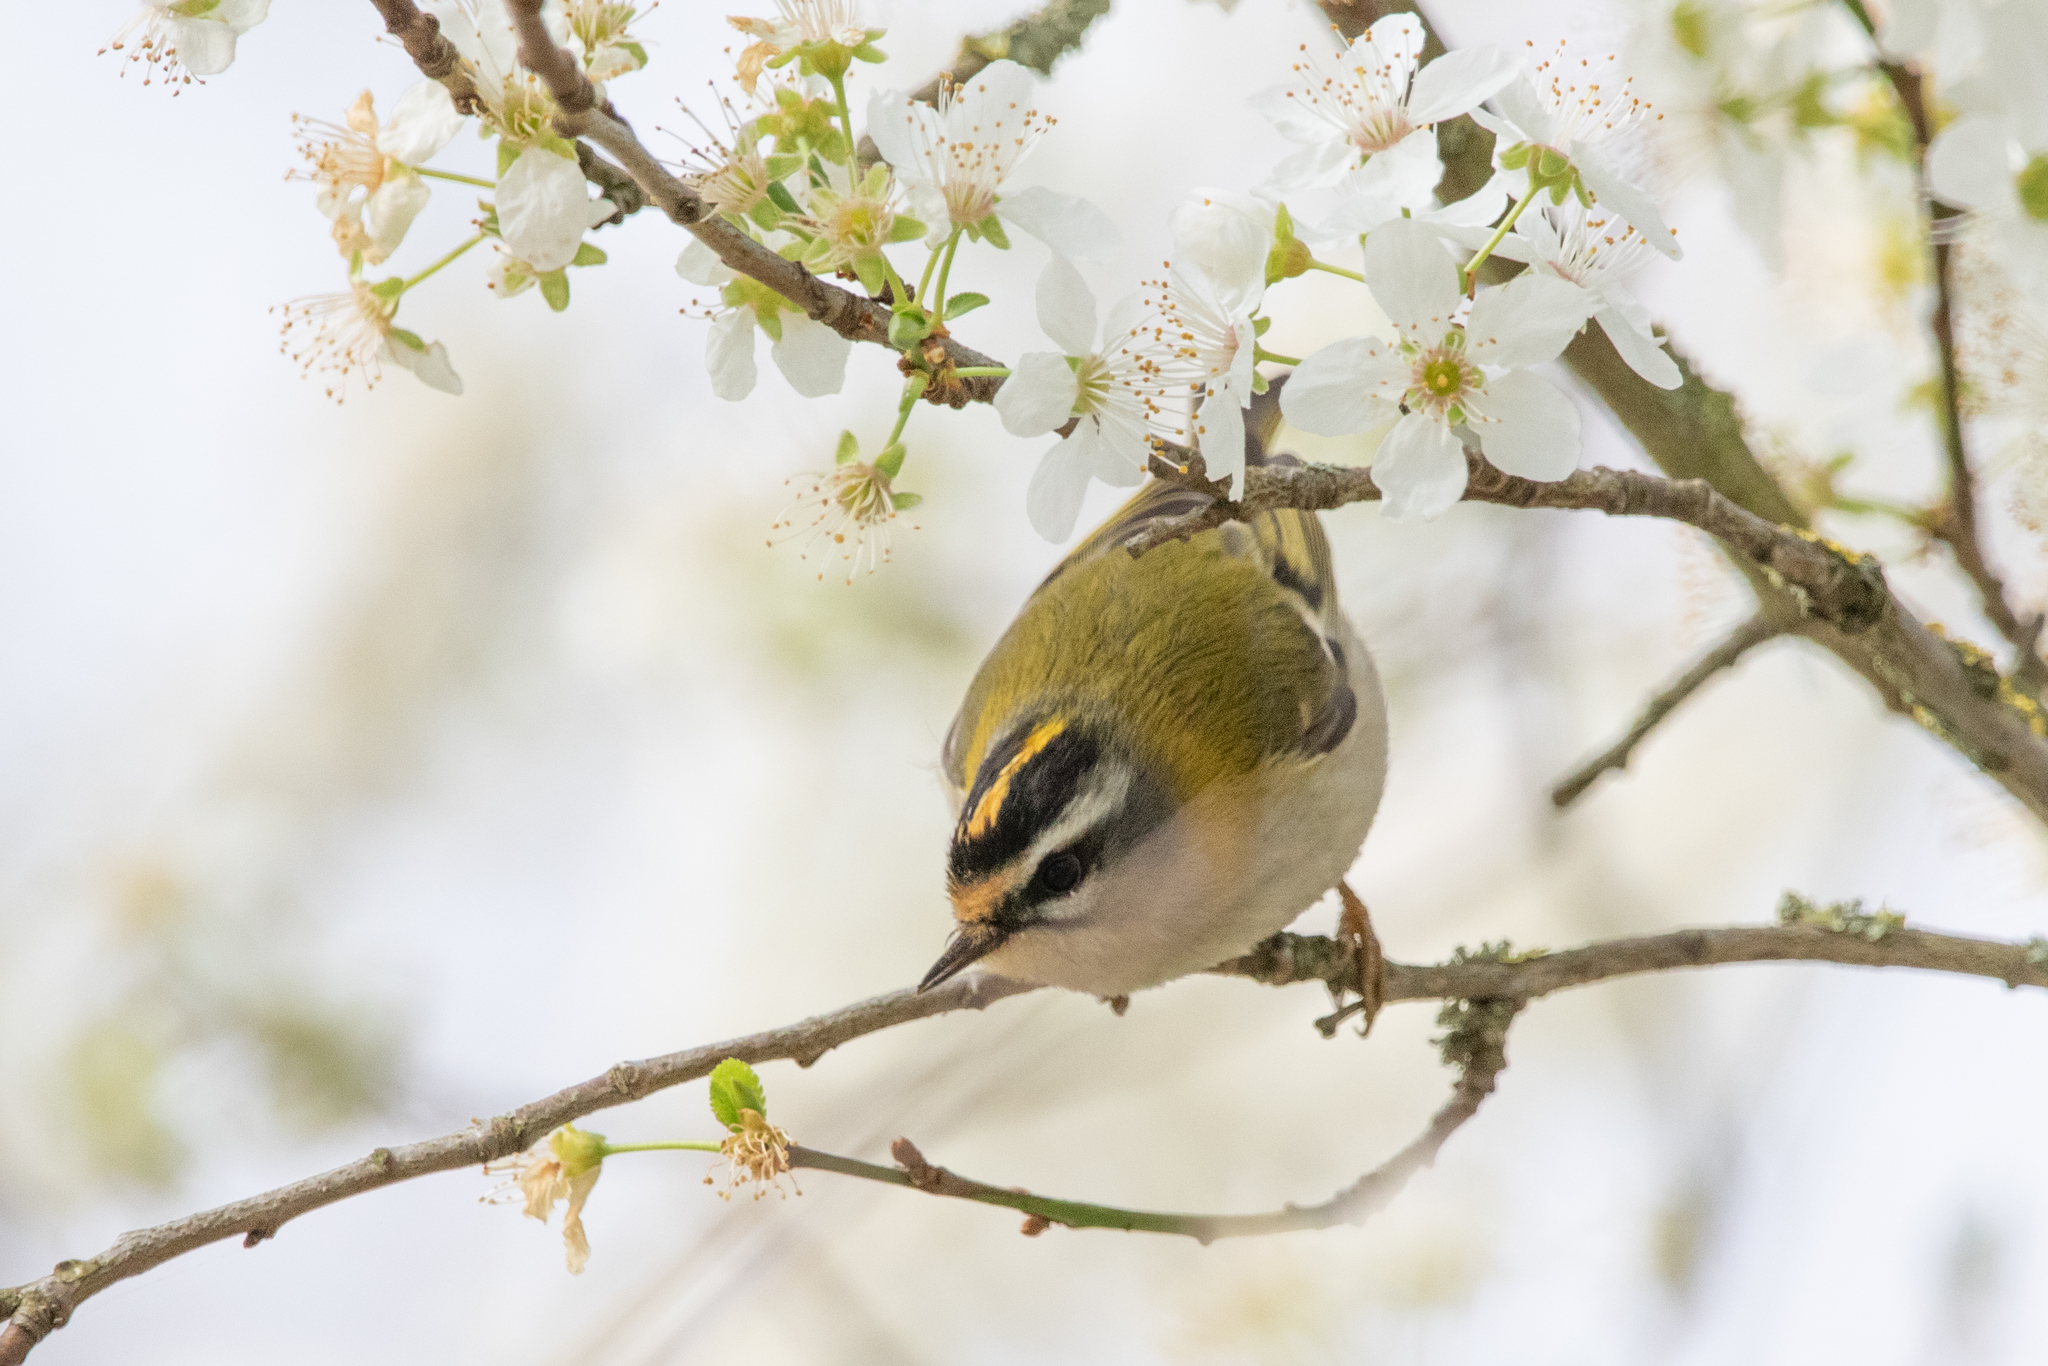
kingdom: Animalia
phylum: Chordata
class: Aves
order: Passeriformes
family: Regulidae
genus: Regulus
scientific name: Regulus ignicapilla
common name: Firecrest
